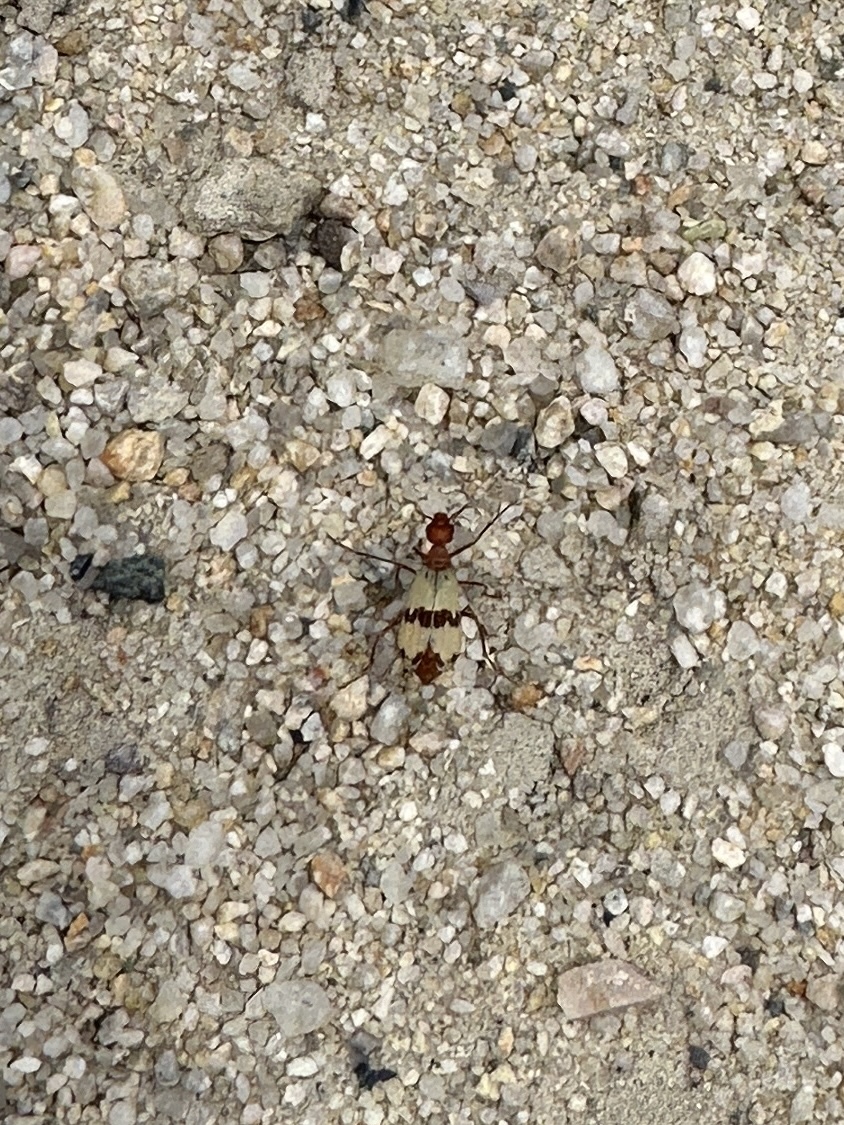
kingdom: Animalia
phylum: Arthropoda
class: Insecta
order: Coleoptera
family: Meloidae
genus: Pleuropasta
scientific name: Pleuropasta mirabilis
